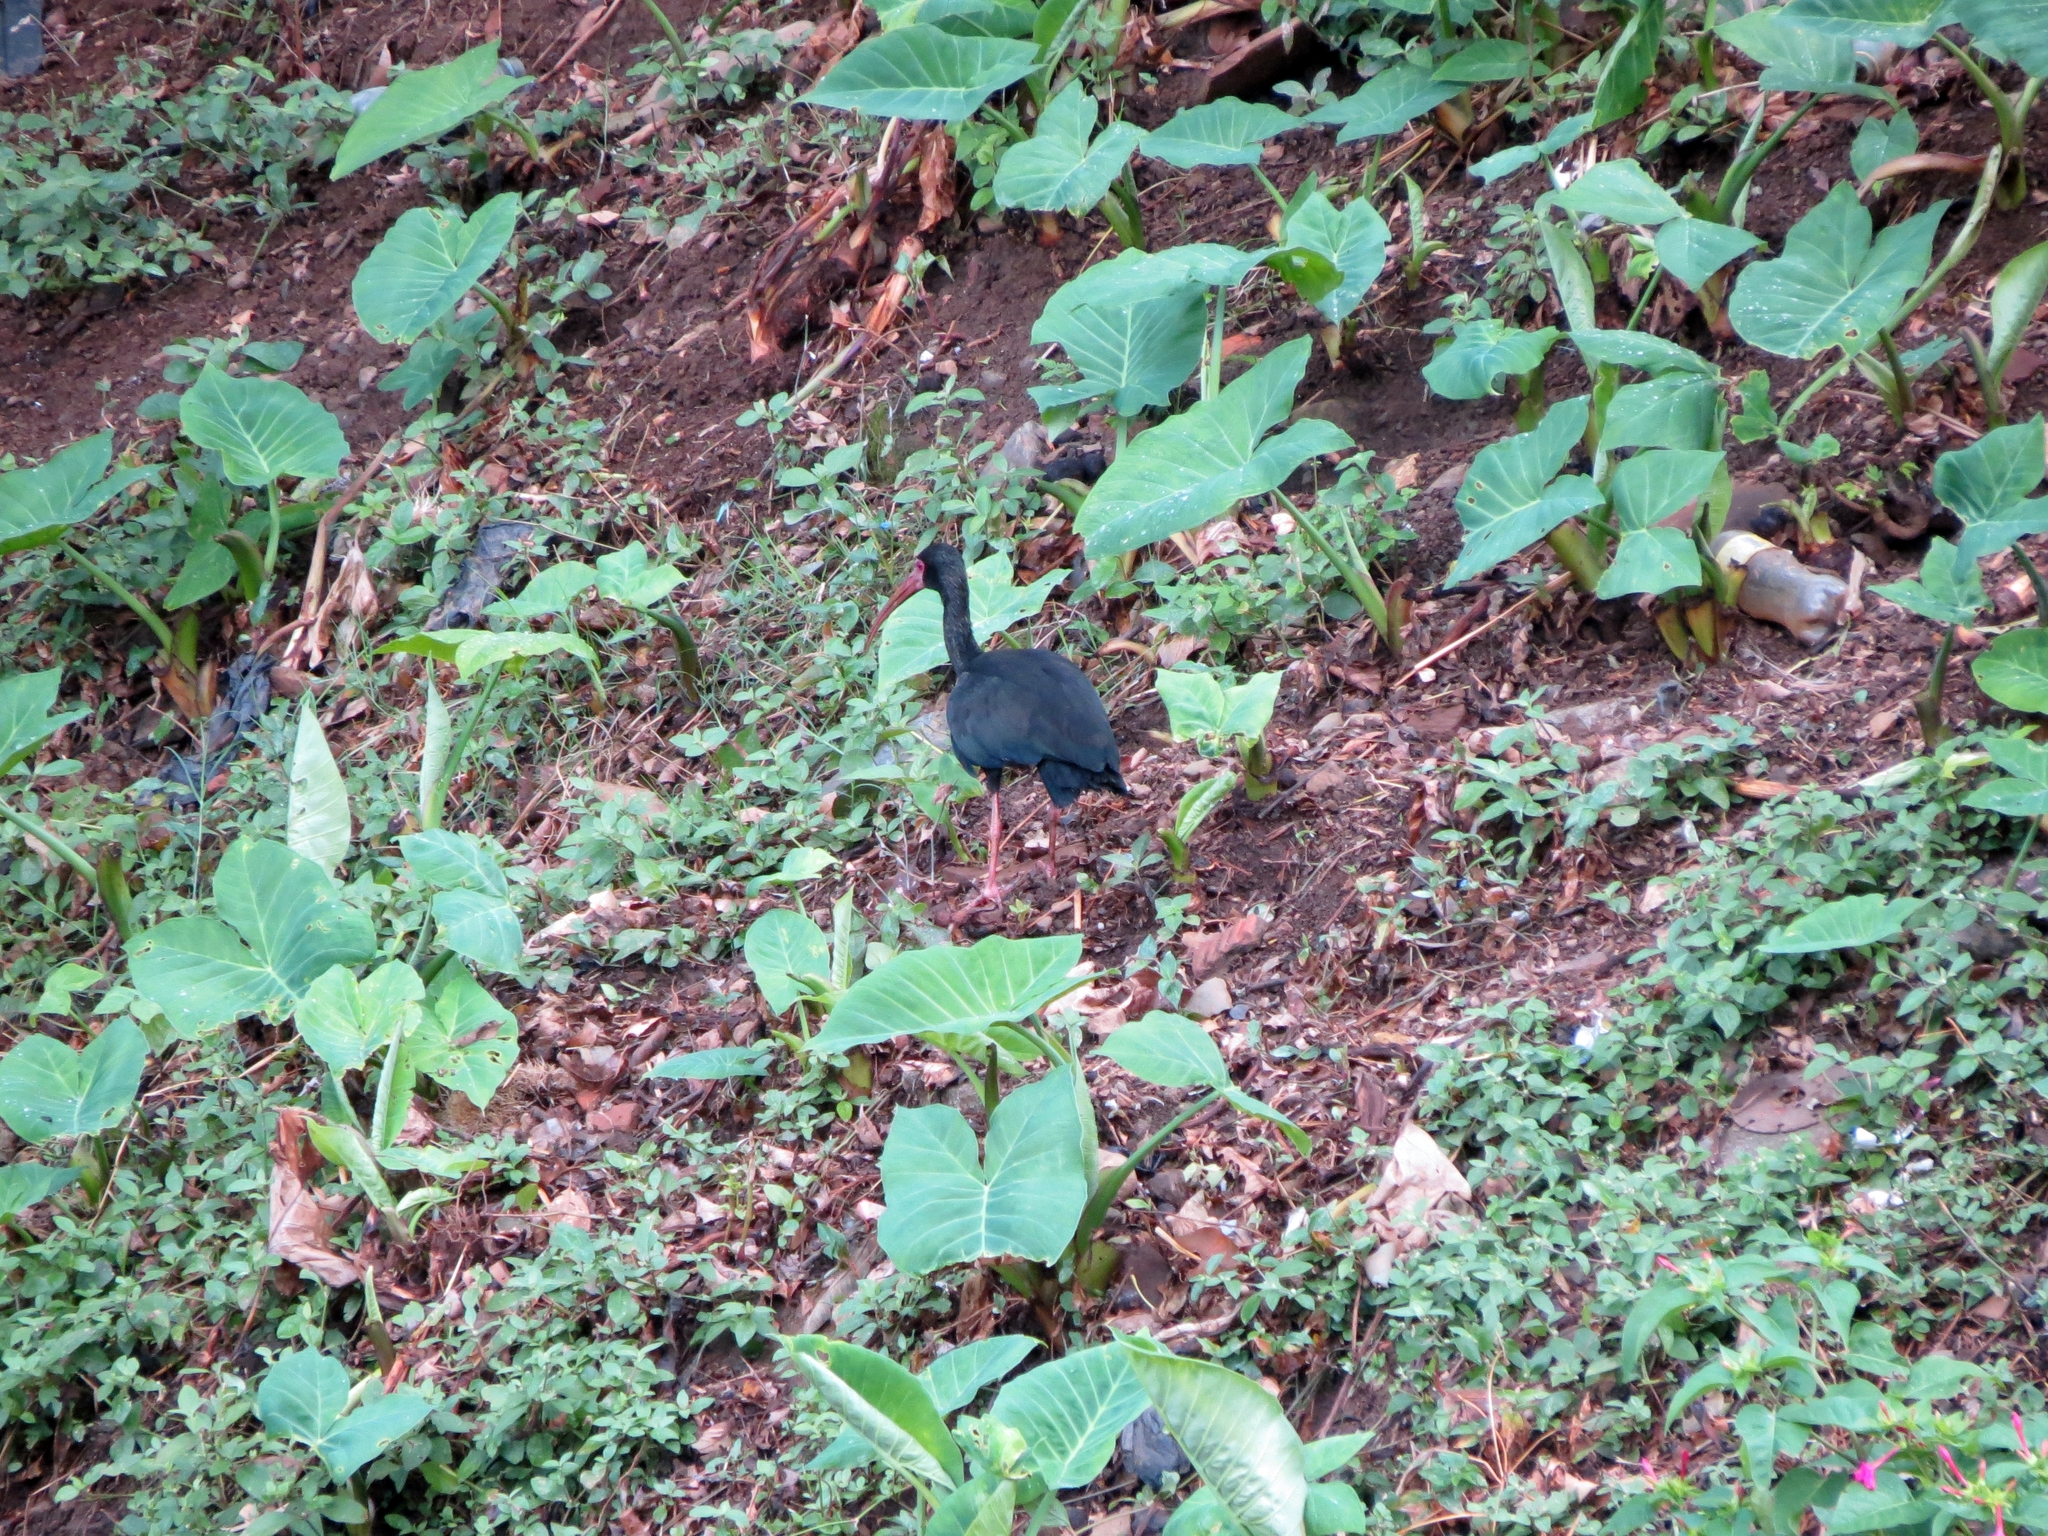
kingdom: Animalia
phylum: Chordata
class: Aves
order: Pelecaniformes
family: Threskiornithidae
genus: Phimosus
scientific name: Phimosus infuscatus
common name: Bare-faced ibis
